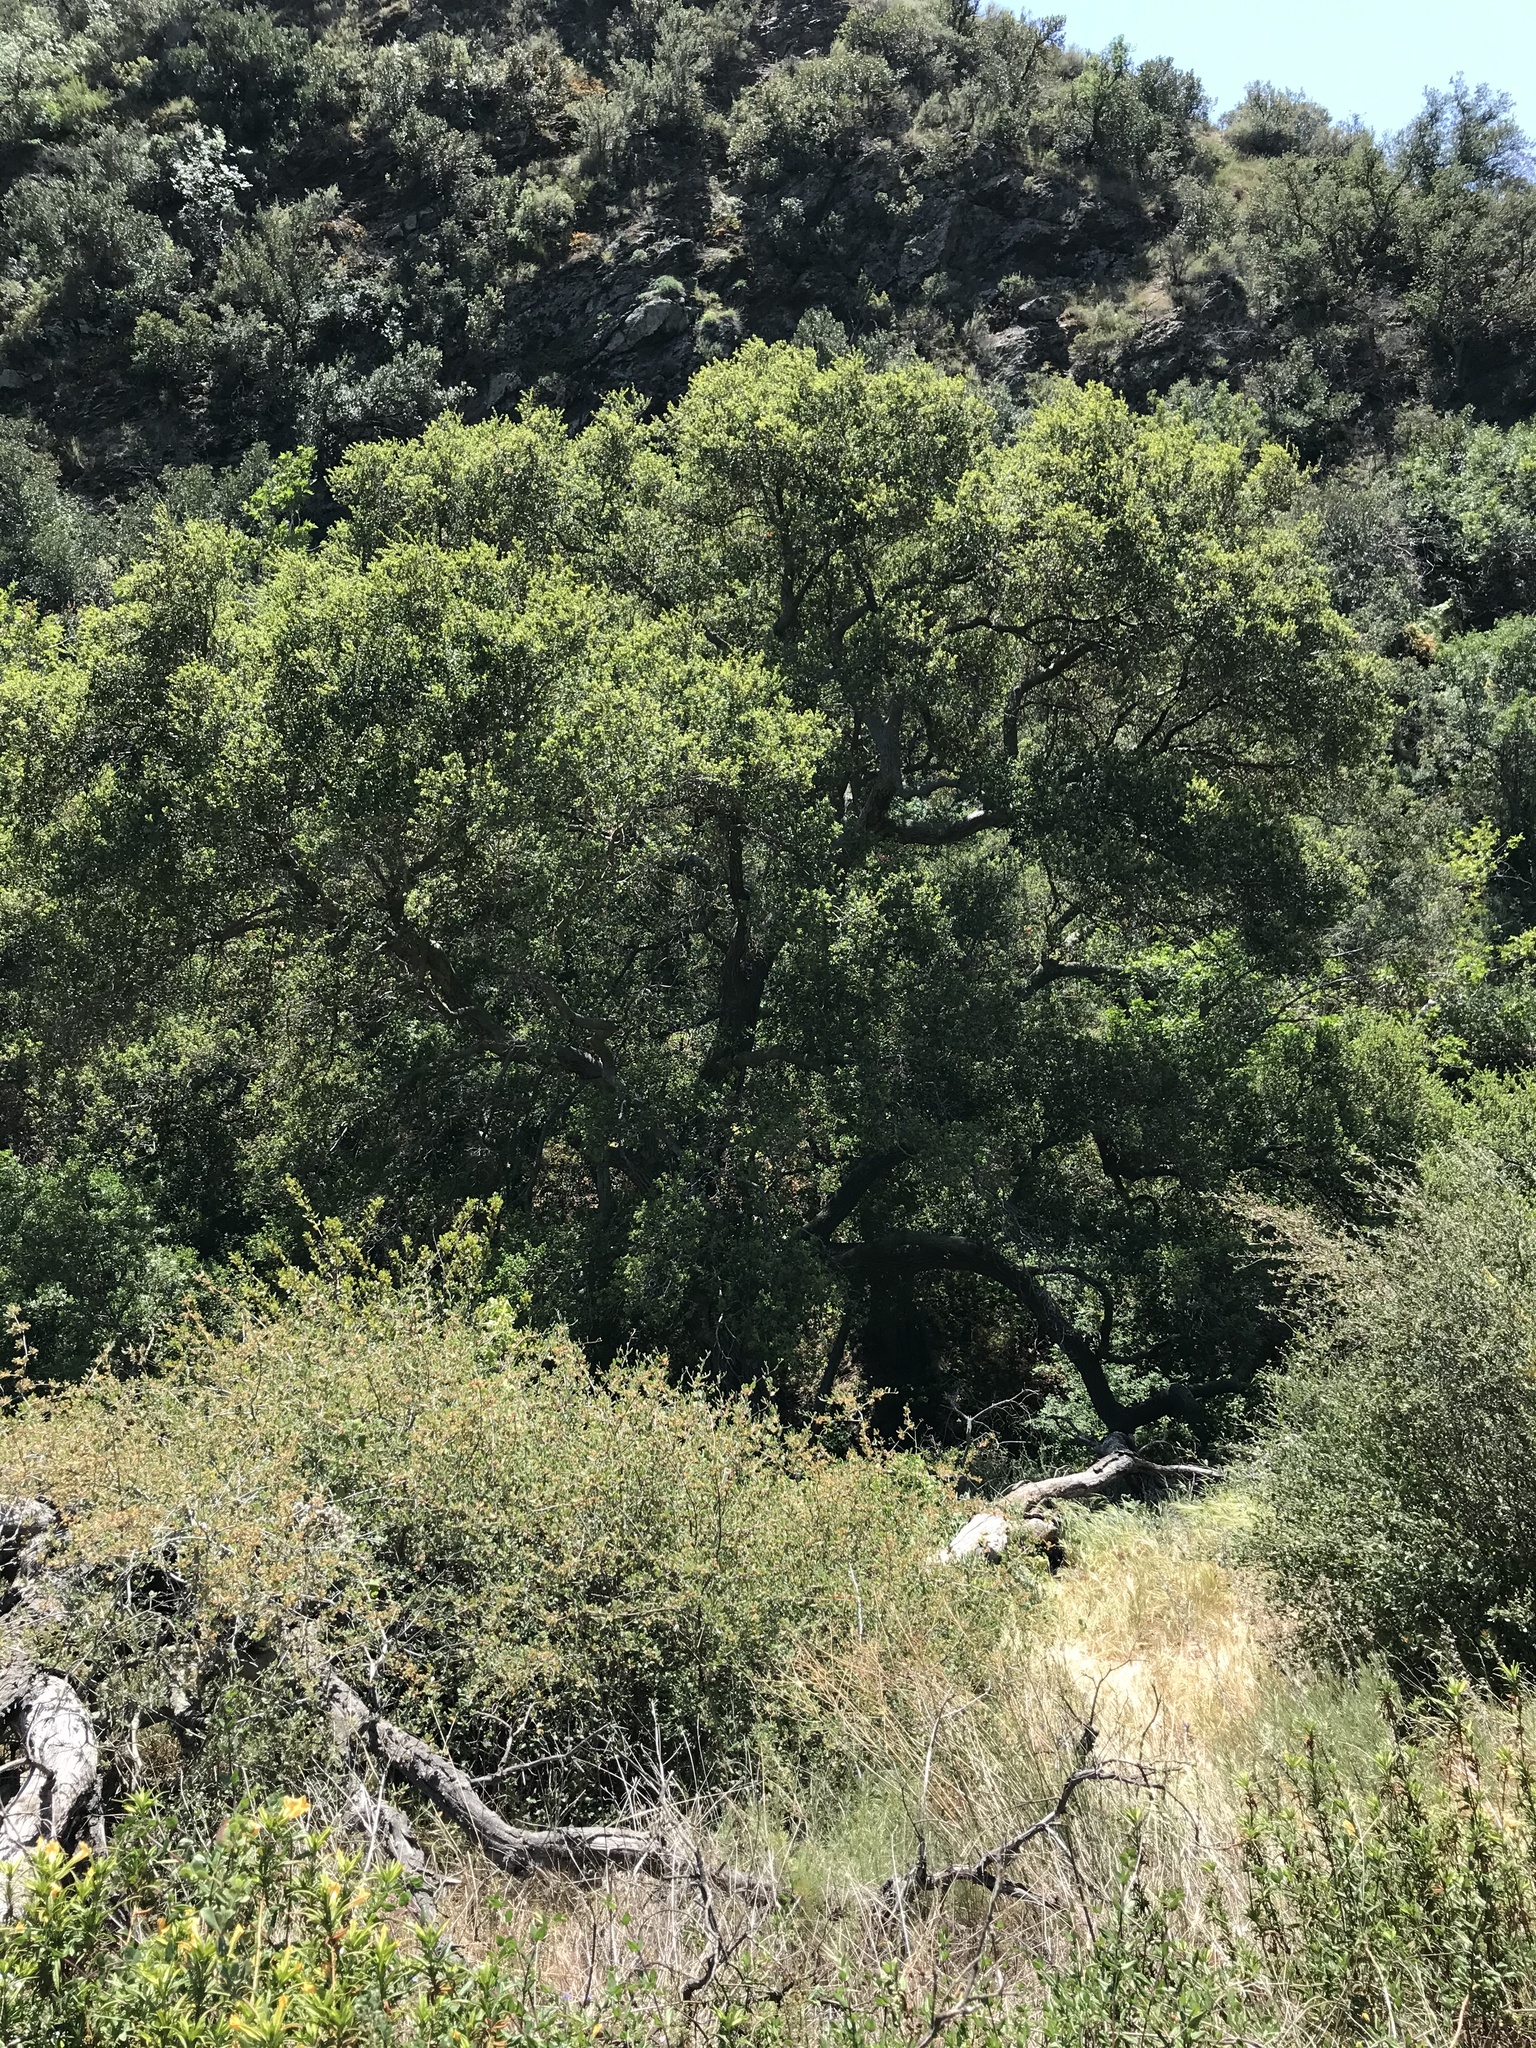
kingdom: Plantae
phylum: Tracheophyta
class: Magnoliopsida
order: Fagales
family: Fagaceae
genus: Quercus
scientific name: Quercus agrifolia
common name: California live oak
